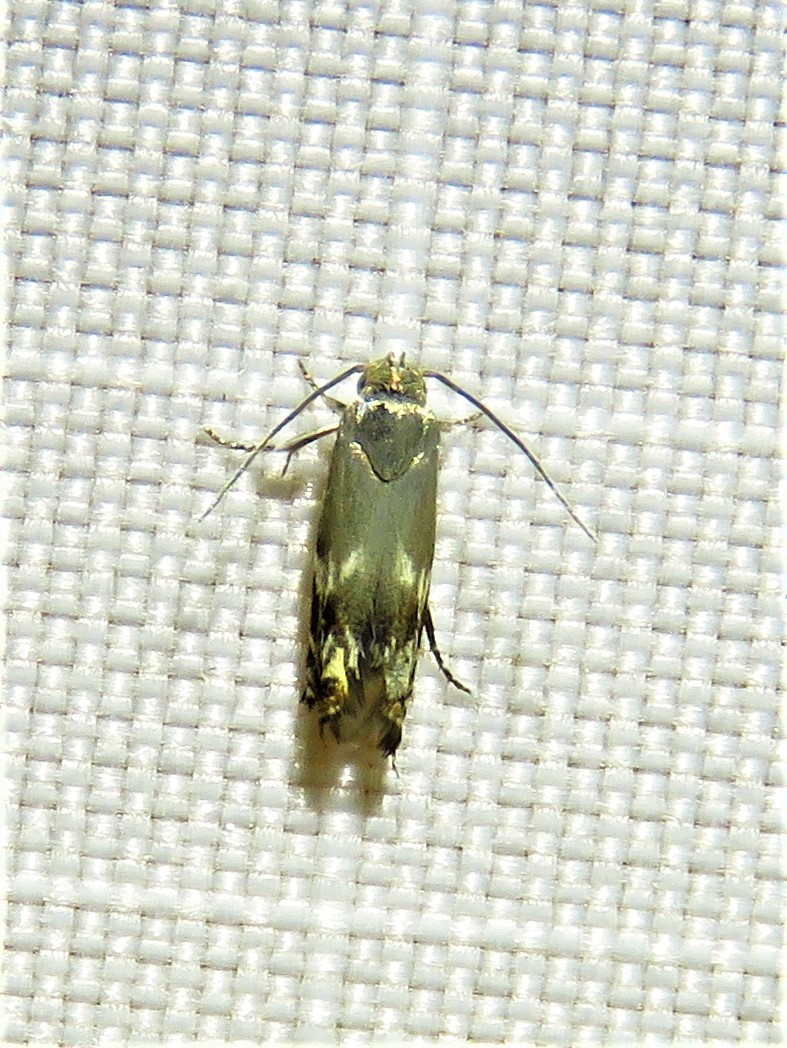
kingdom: Animalia
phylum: Arthropoda
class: Insecta
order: Lepidoptera
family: Gelechiidae
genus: Calliprora
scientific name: Calliprora sexstrigella
